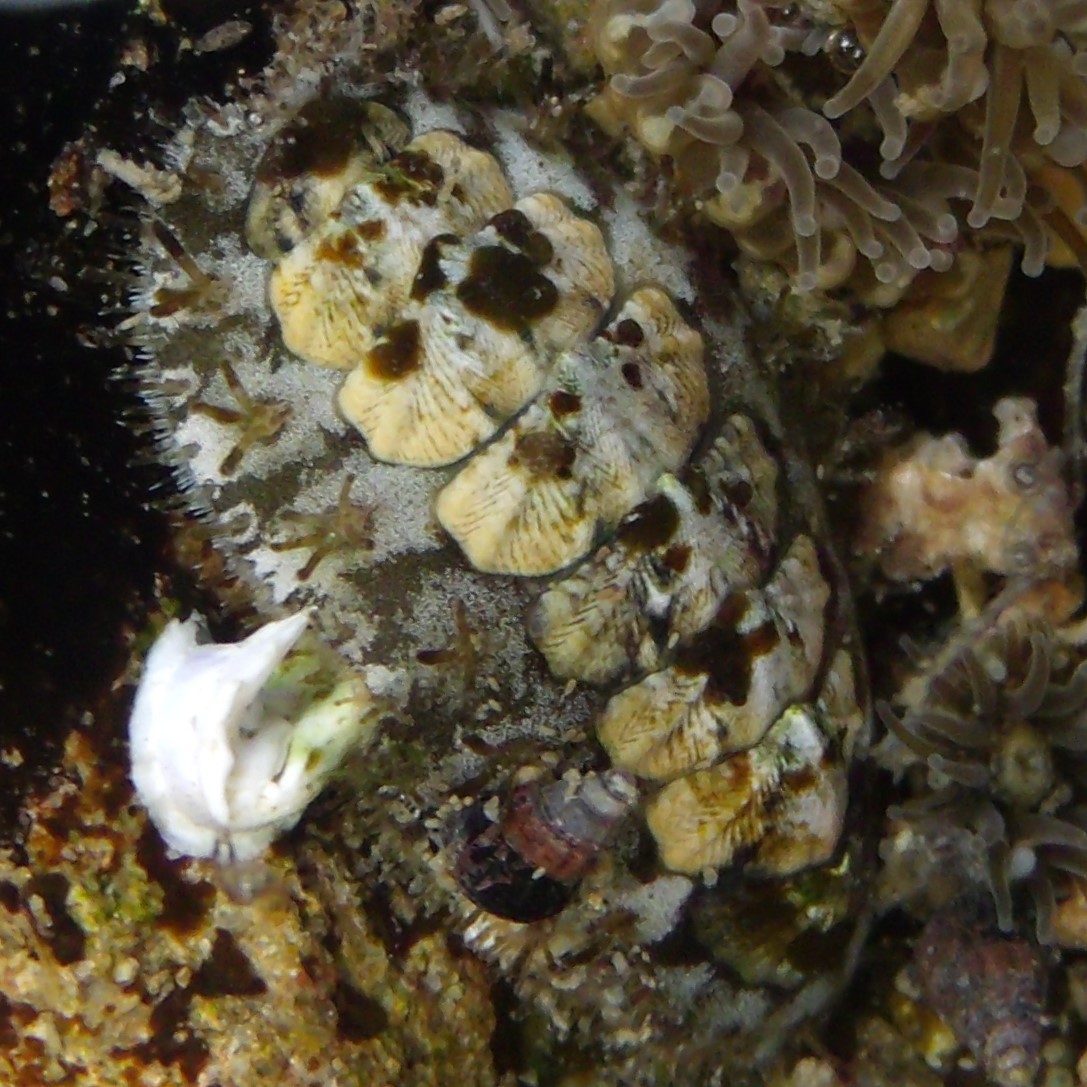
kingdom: Animalia
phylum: Mollusca
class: Polyplacophora
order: Chitonida
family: Mopaliidae
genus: Plaxiphora
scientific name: Plaxiphora caelata
